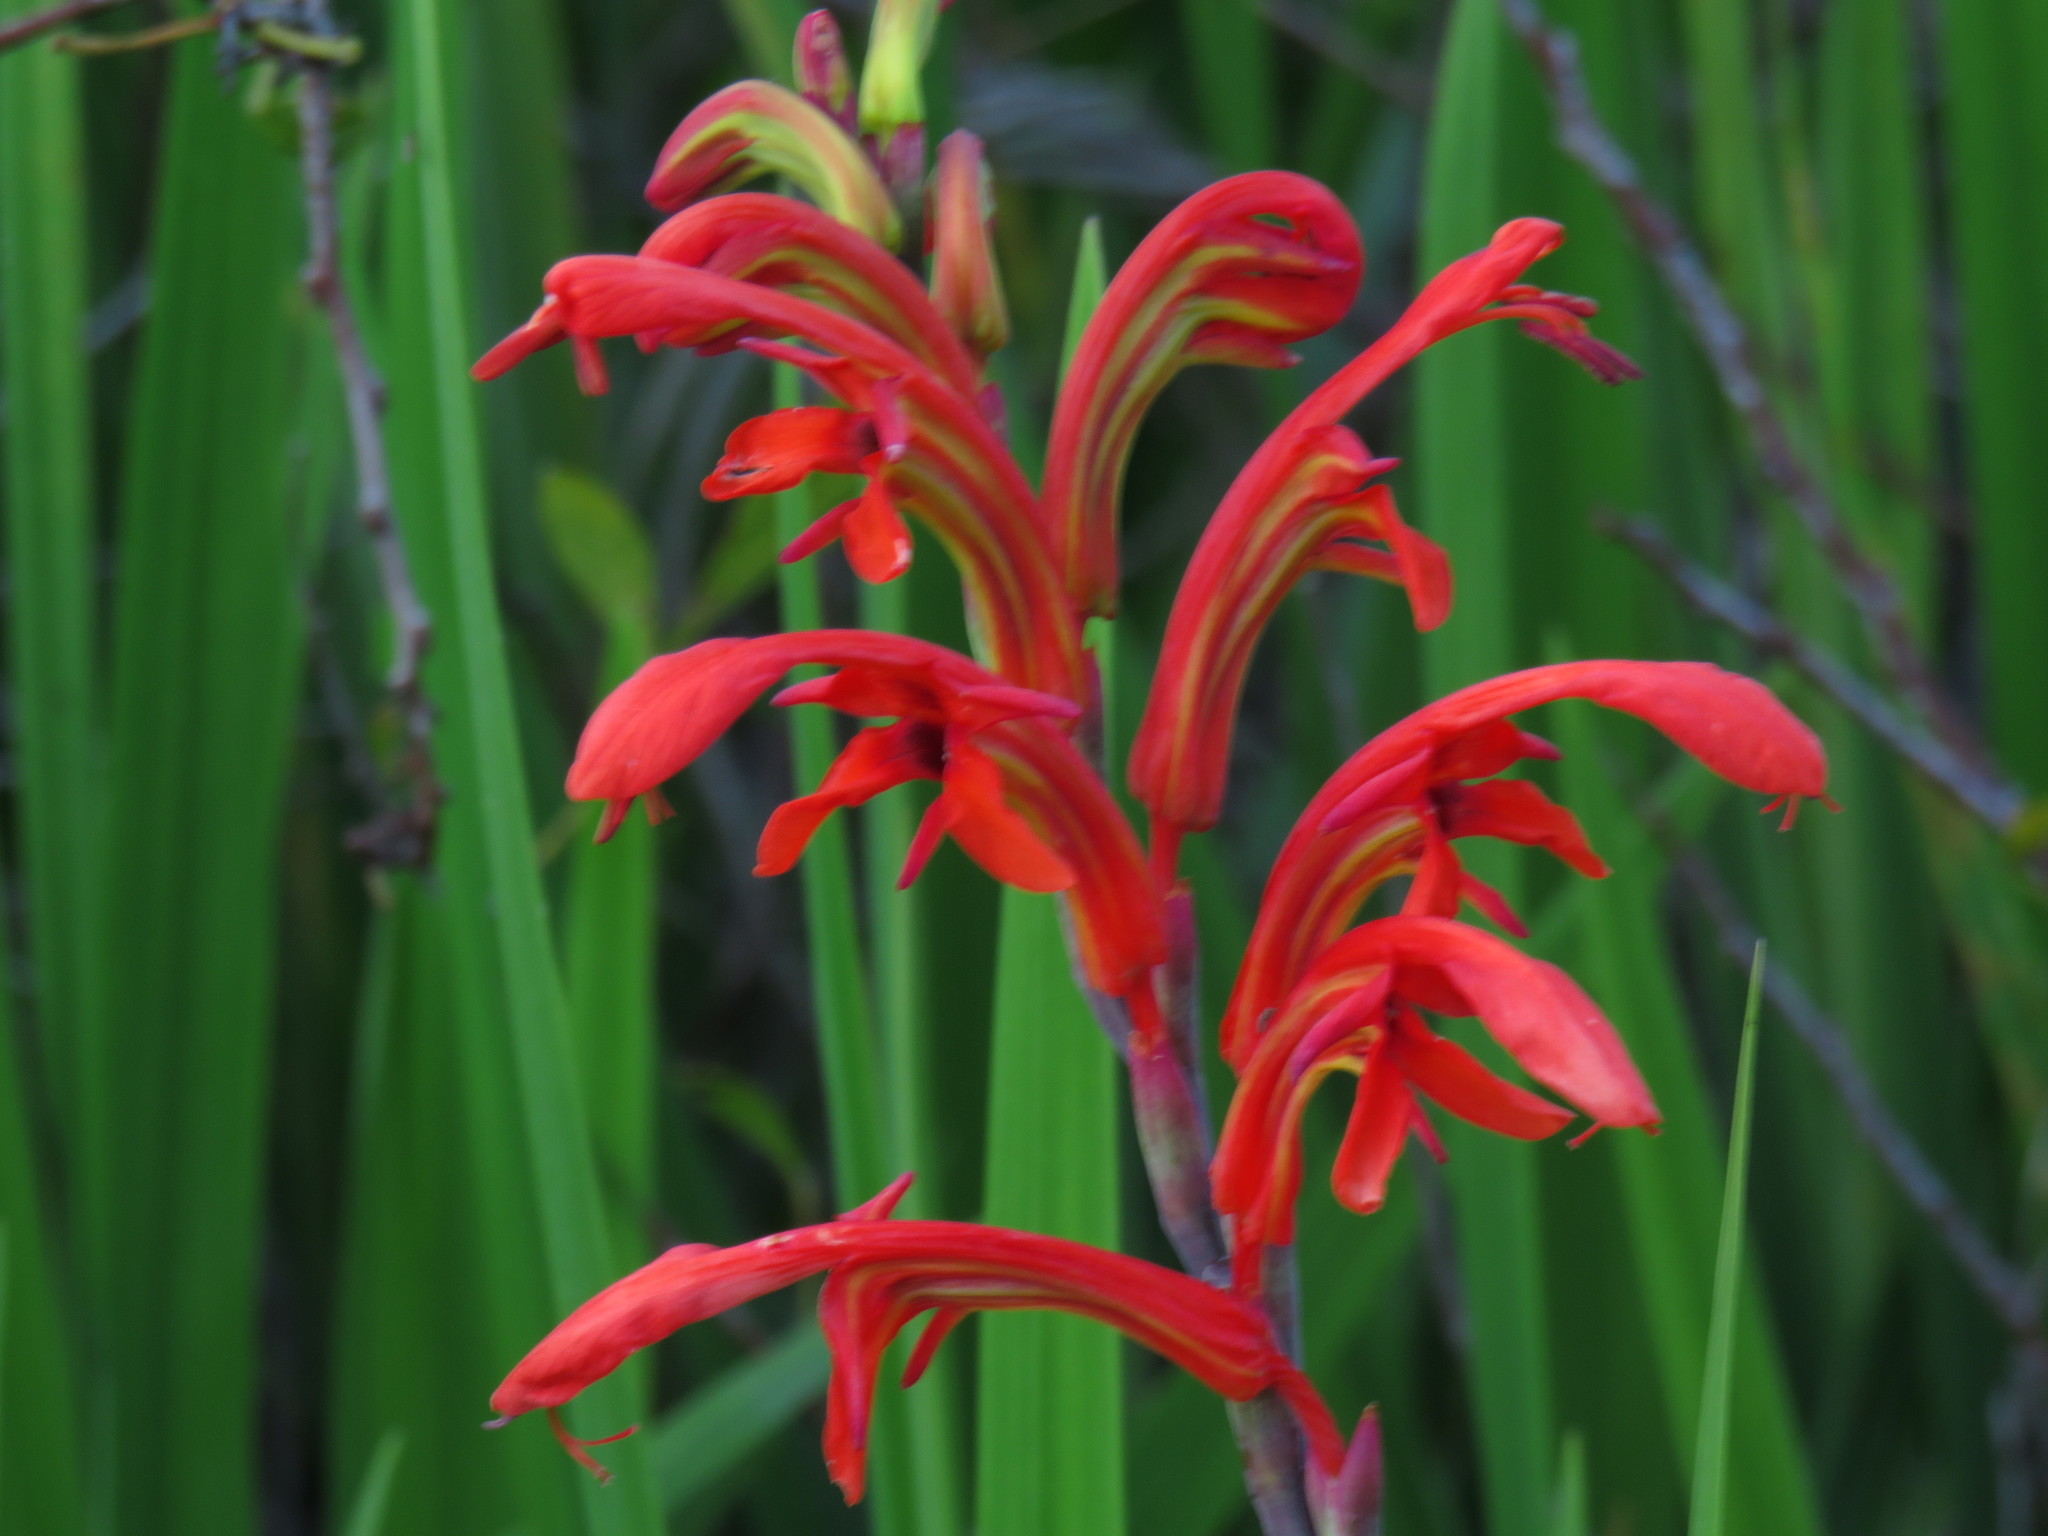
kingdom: Plantae
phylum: Tracheophyta
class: Liliopsida
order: Asparagales
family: Iridaceae
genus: Chasmanthe
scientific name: Chasmanthe aethiopica
